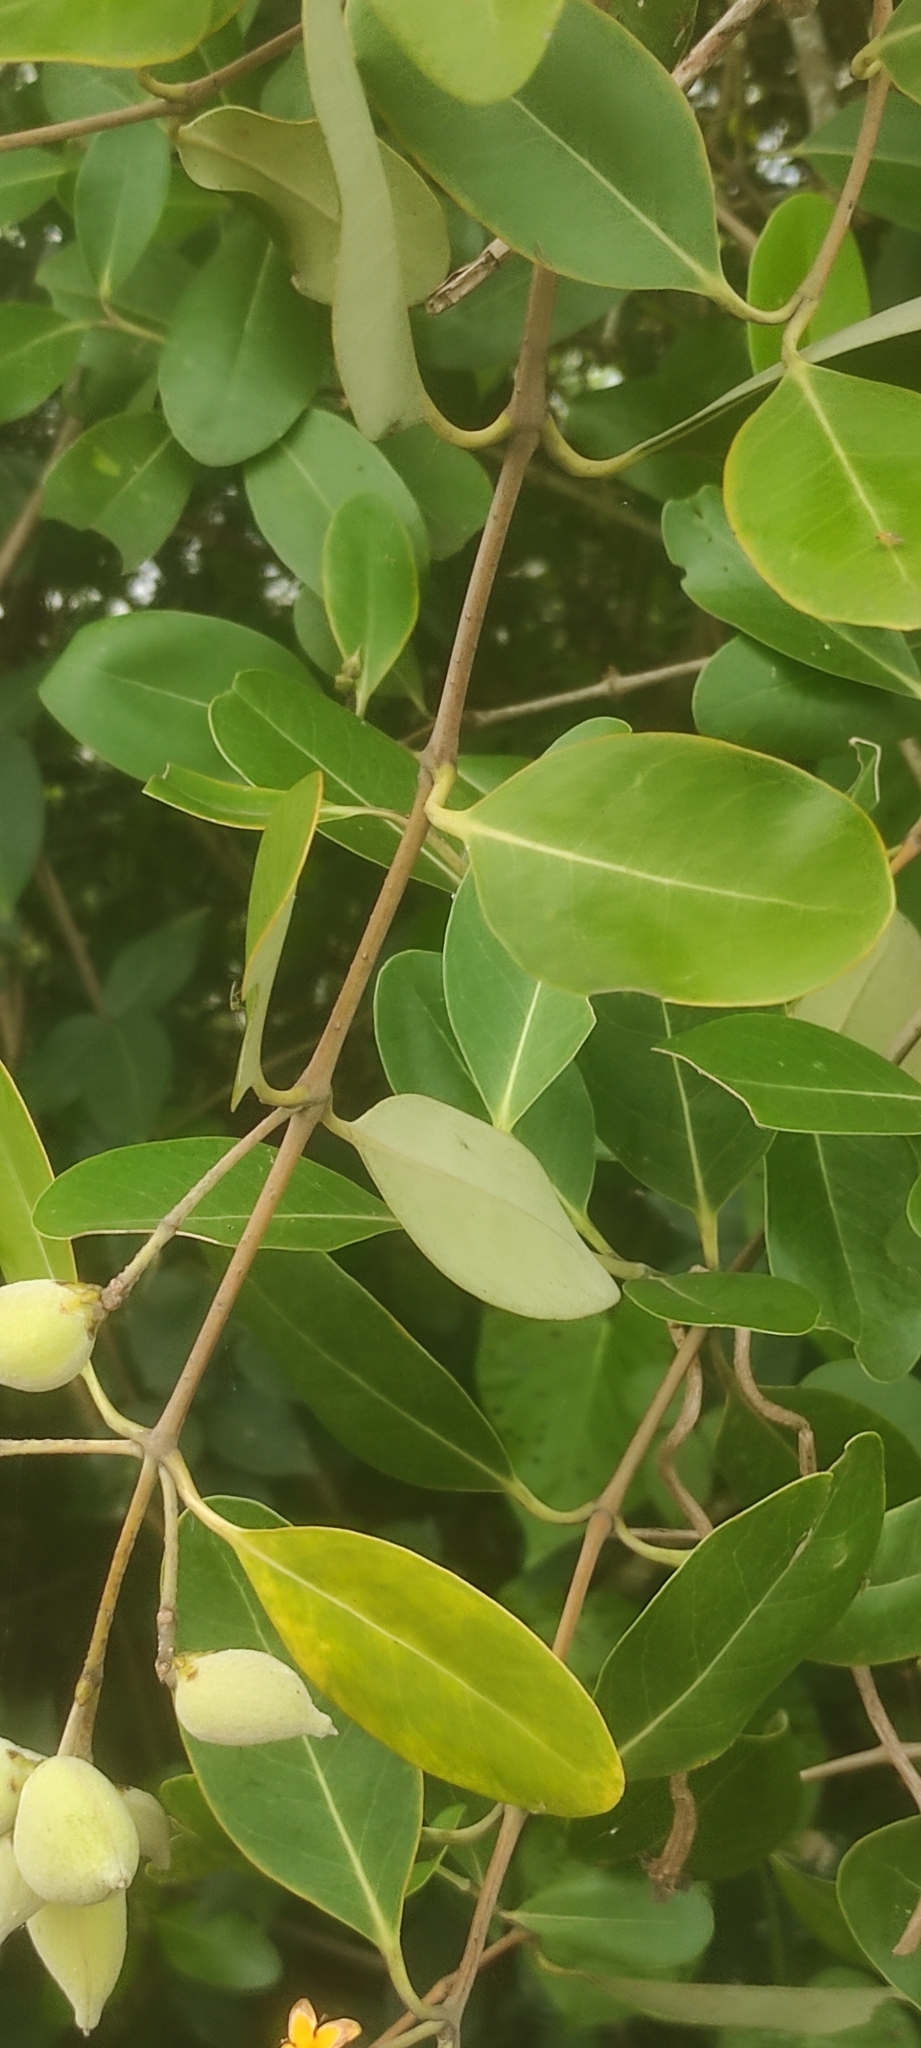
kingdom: Plantae
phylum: Tracheophyta
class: Magnoliopsida
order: Lamiales
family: Acanthaceae
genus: Avicennia
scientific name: Avicennia officinalis
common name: Baen
